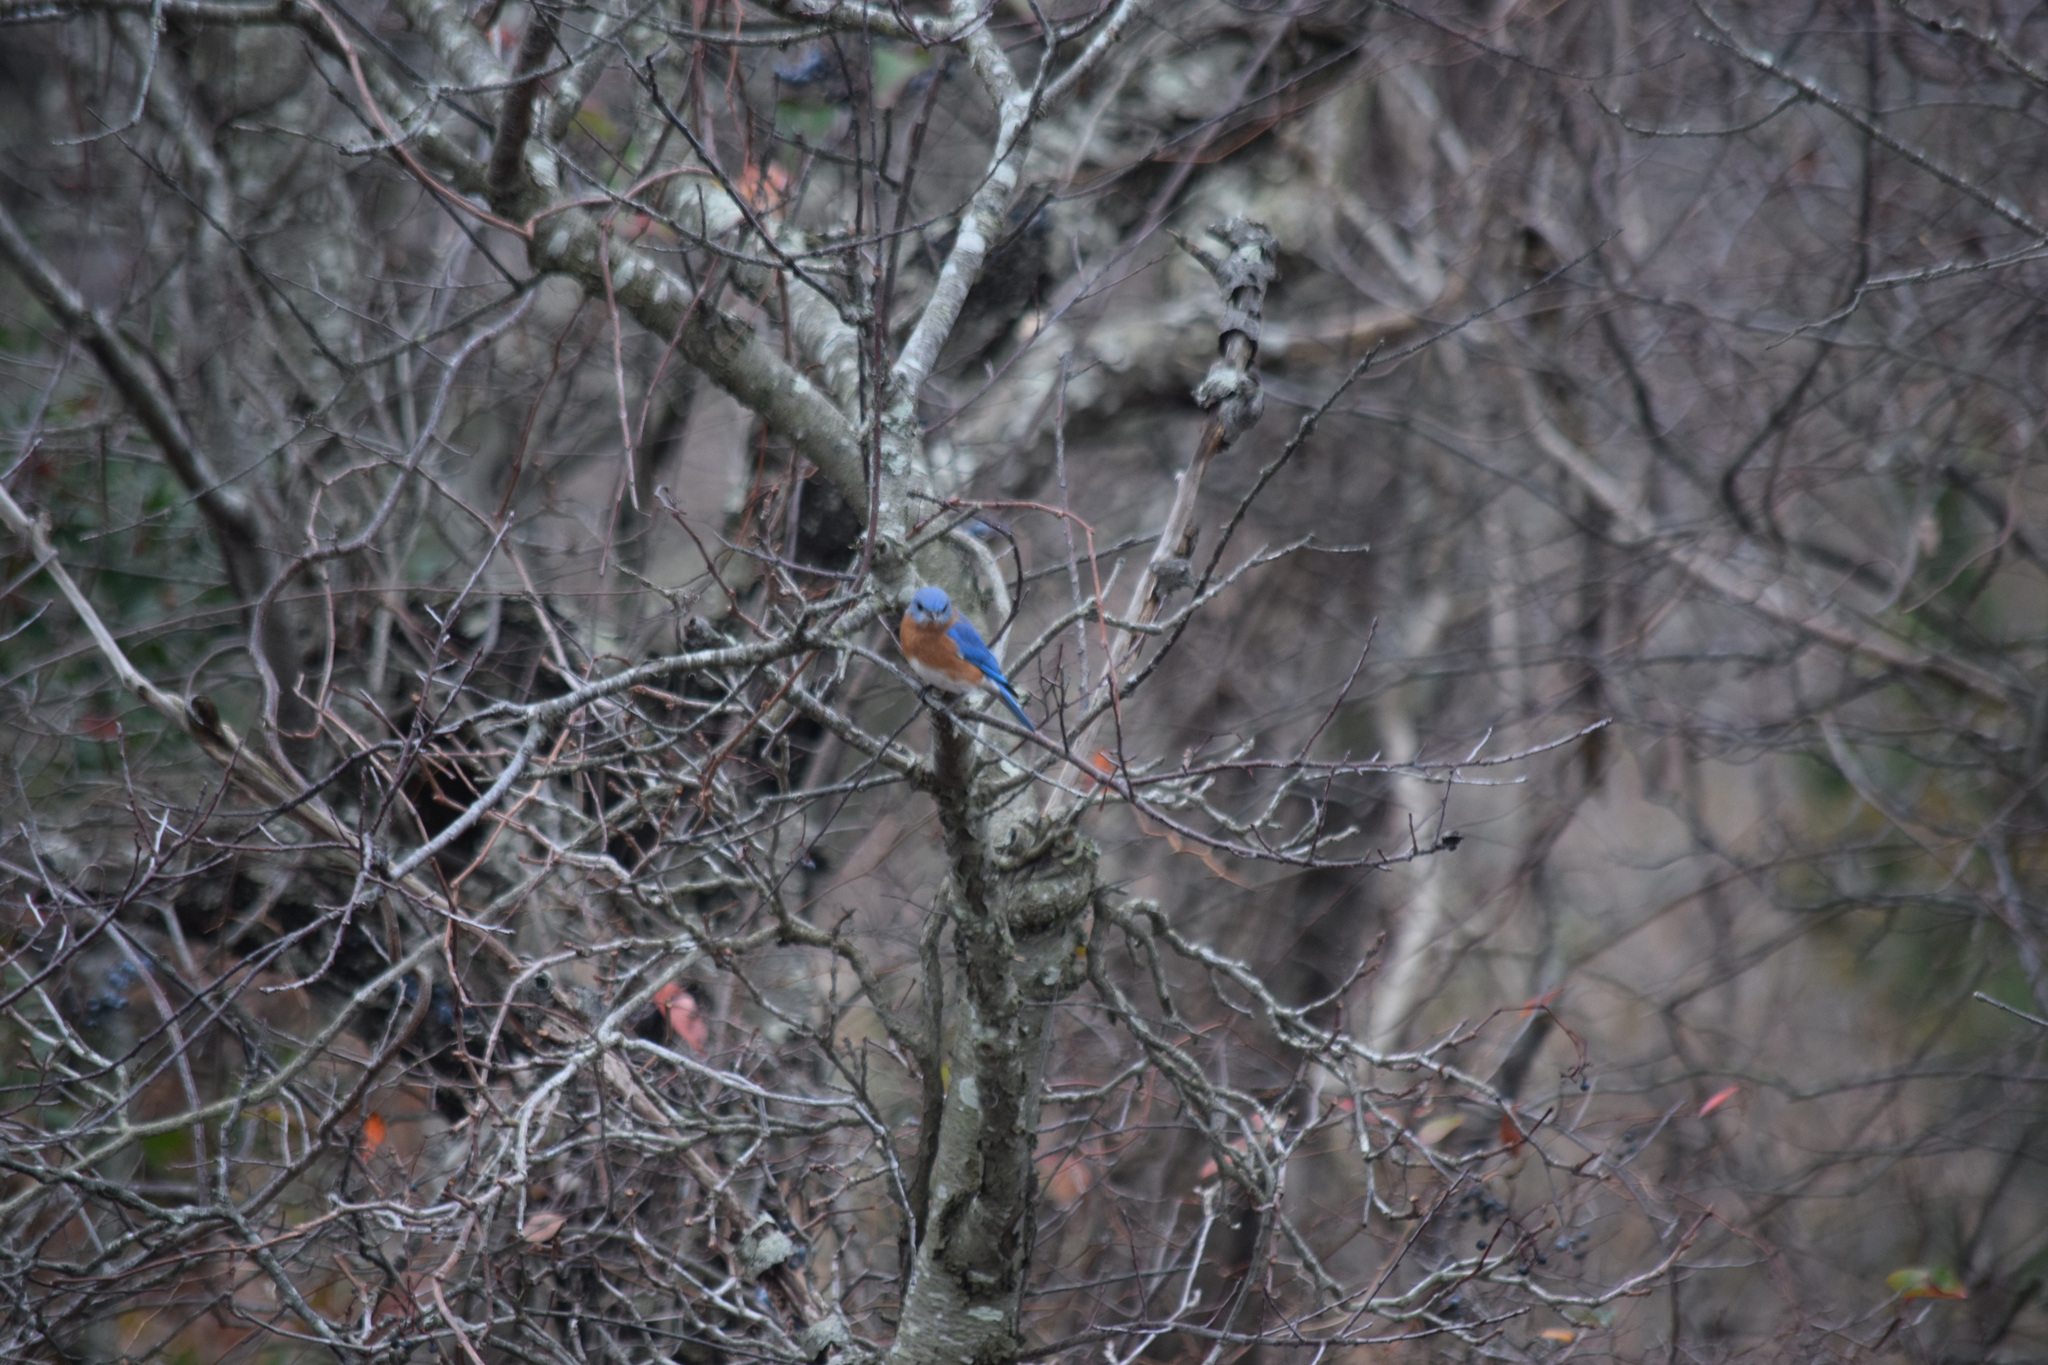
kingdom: Animalia
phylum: Chordata
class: Aves
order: Passeriformes
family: Turdidae
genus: Sialia
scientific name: Sialia sialis
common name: Eastern bluebird
